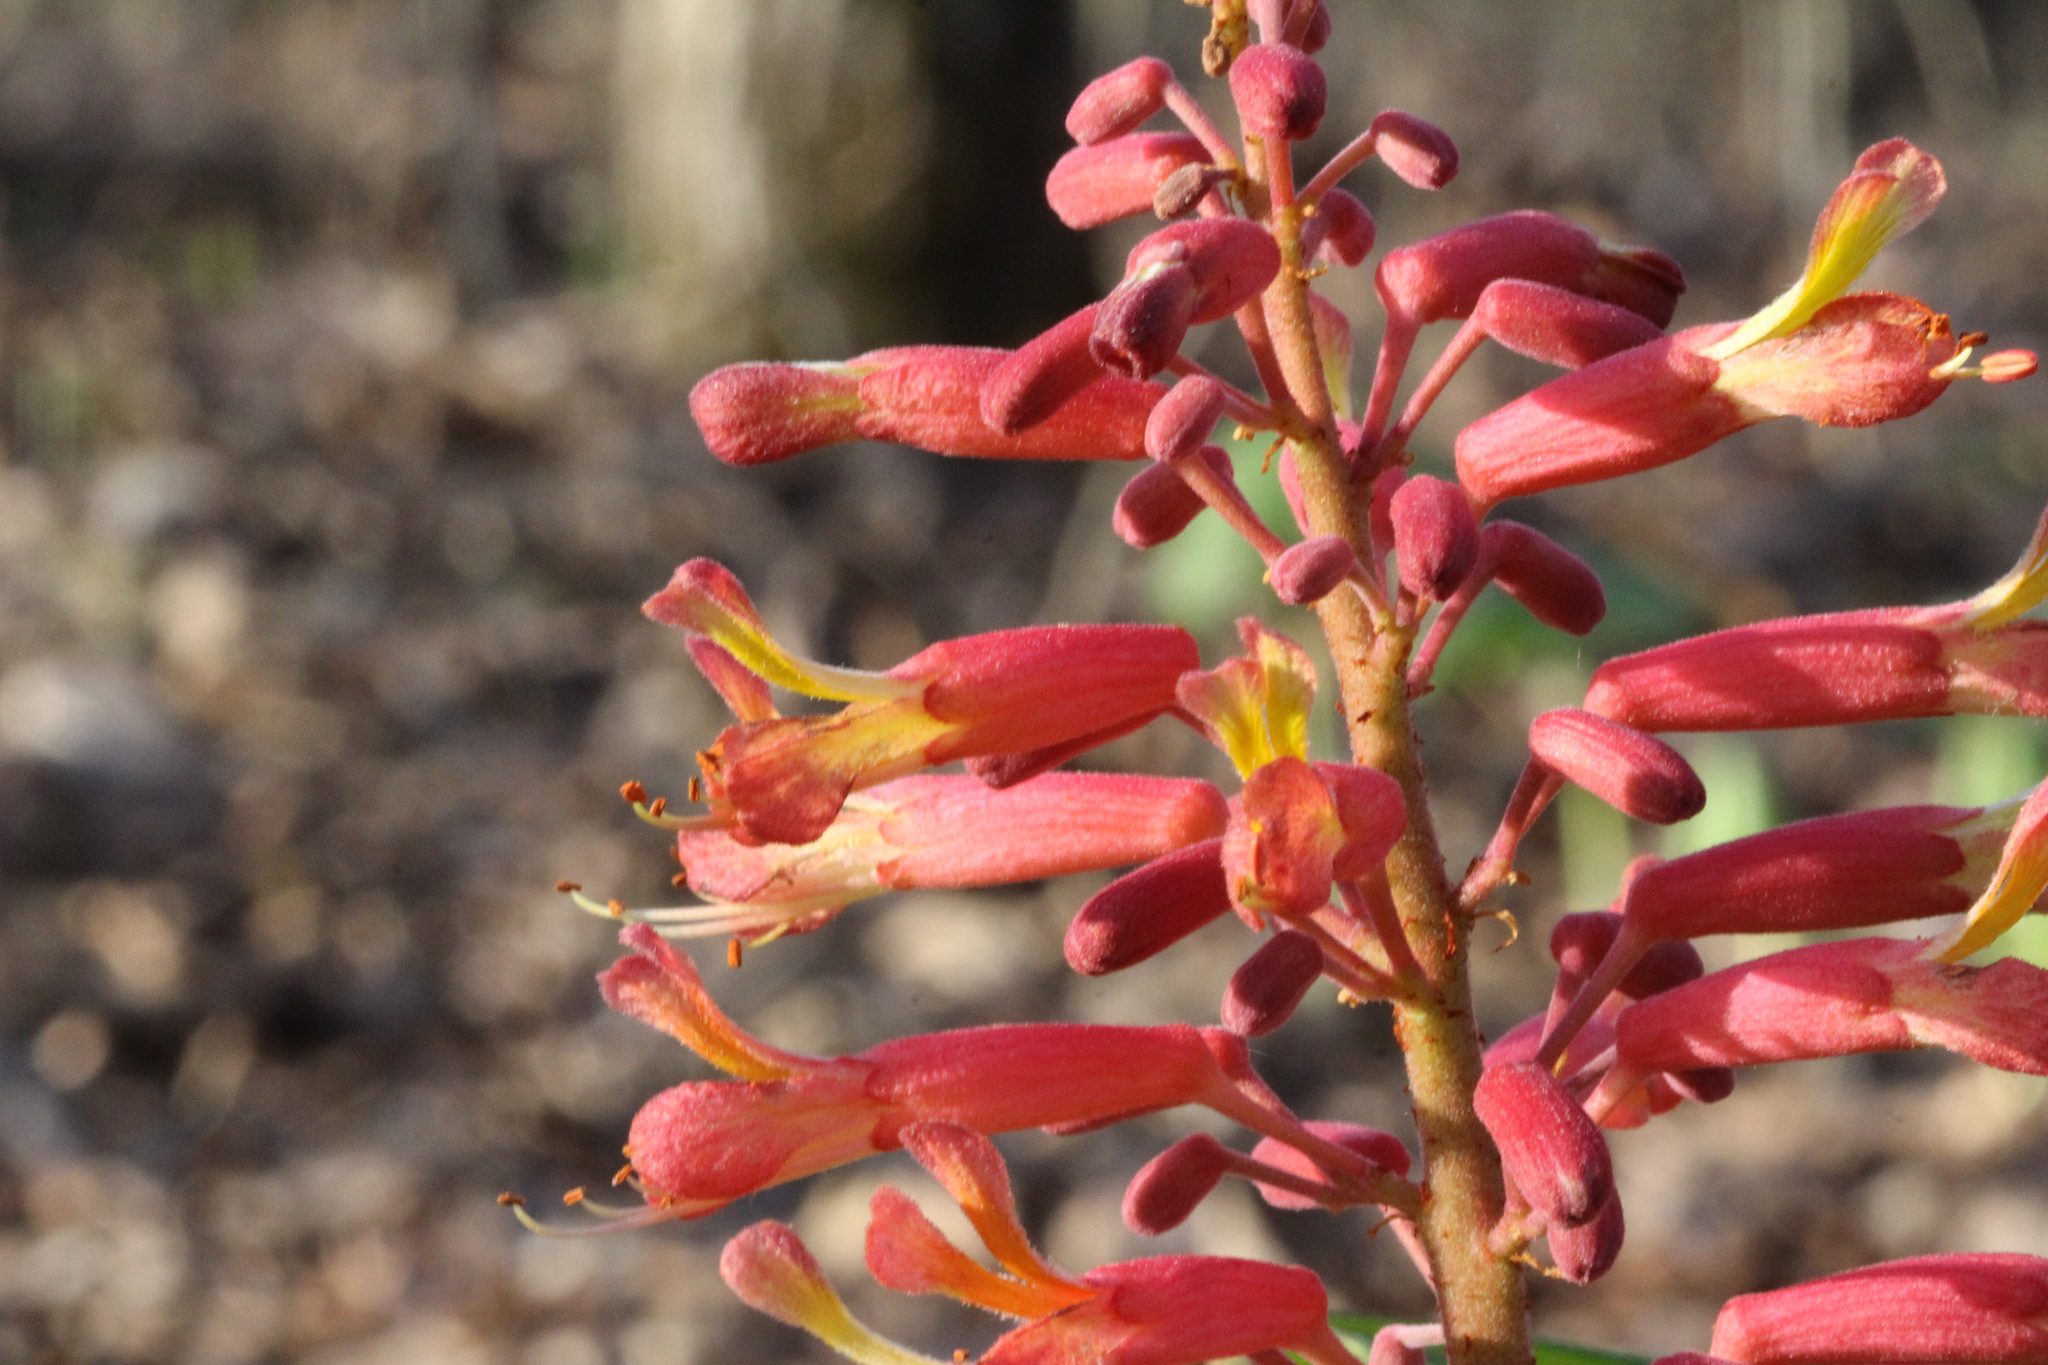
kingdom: Plantae
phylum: Tracheophyta
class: Magnoliopsida
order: Sapindales
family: Sapindaceae
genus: Aesculus
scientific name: Aesculus pavia
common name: Red buckeye
